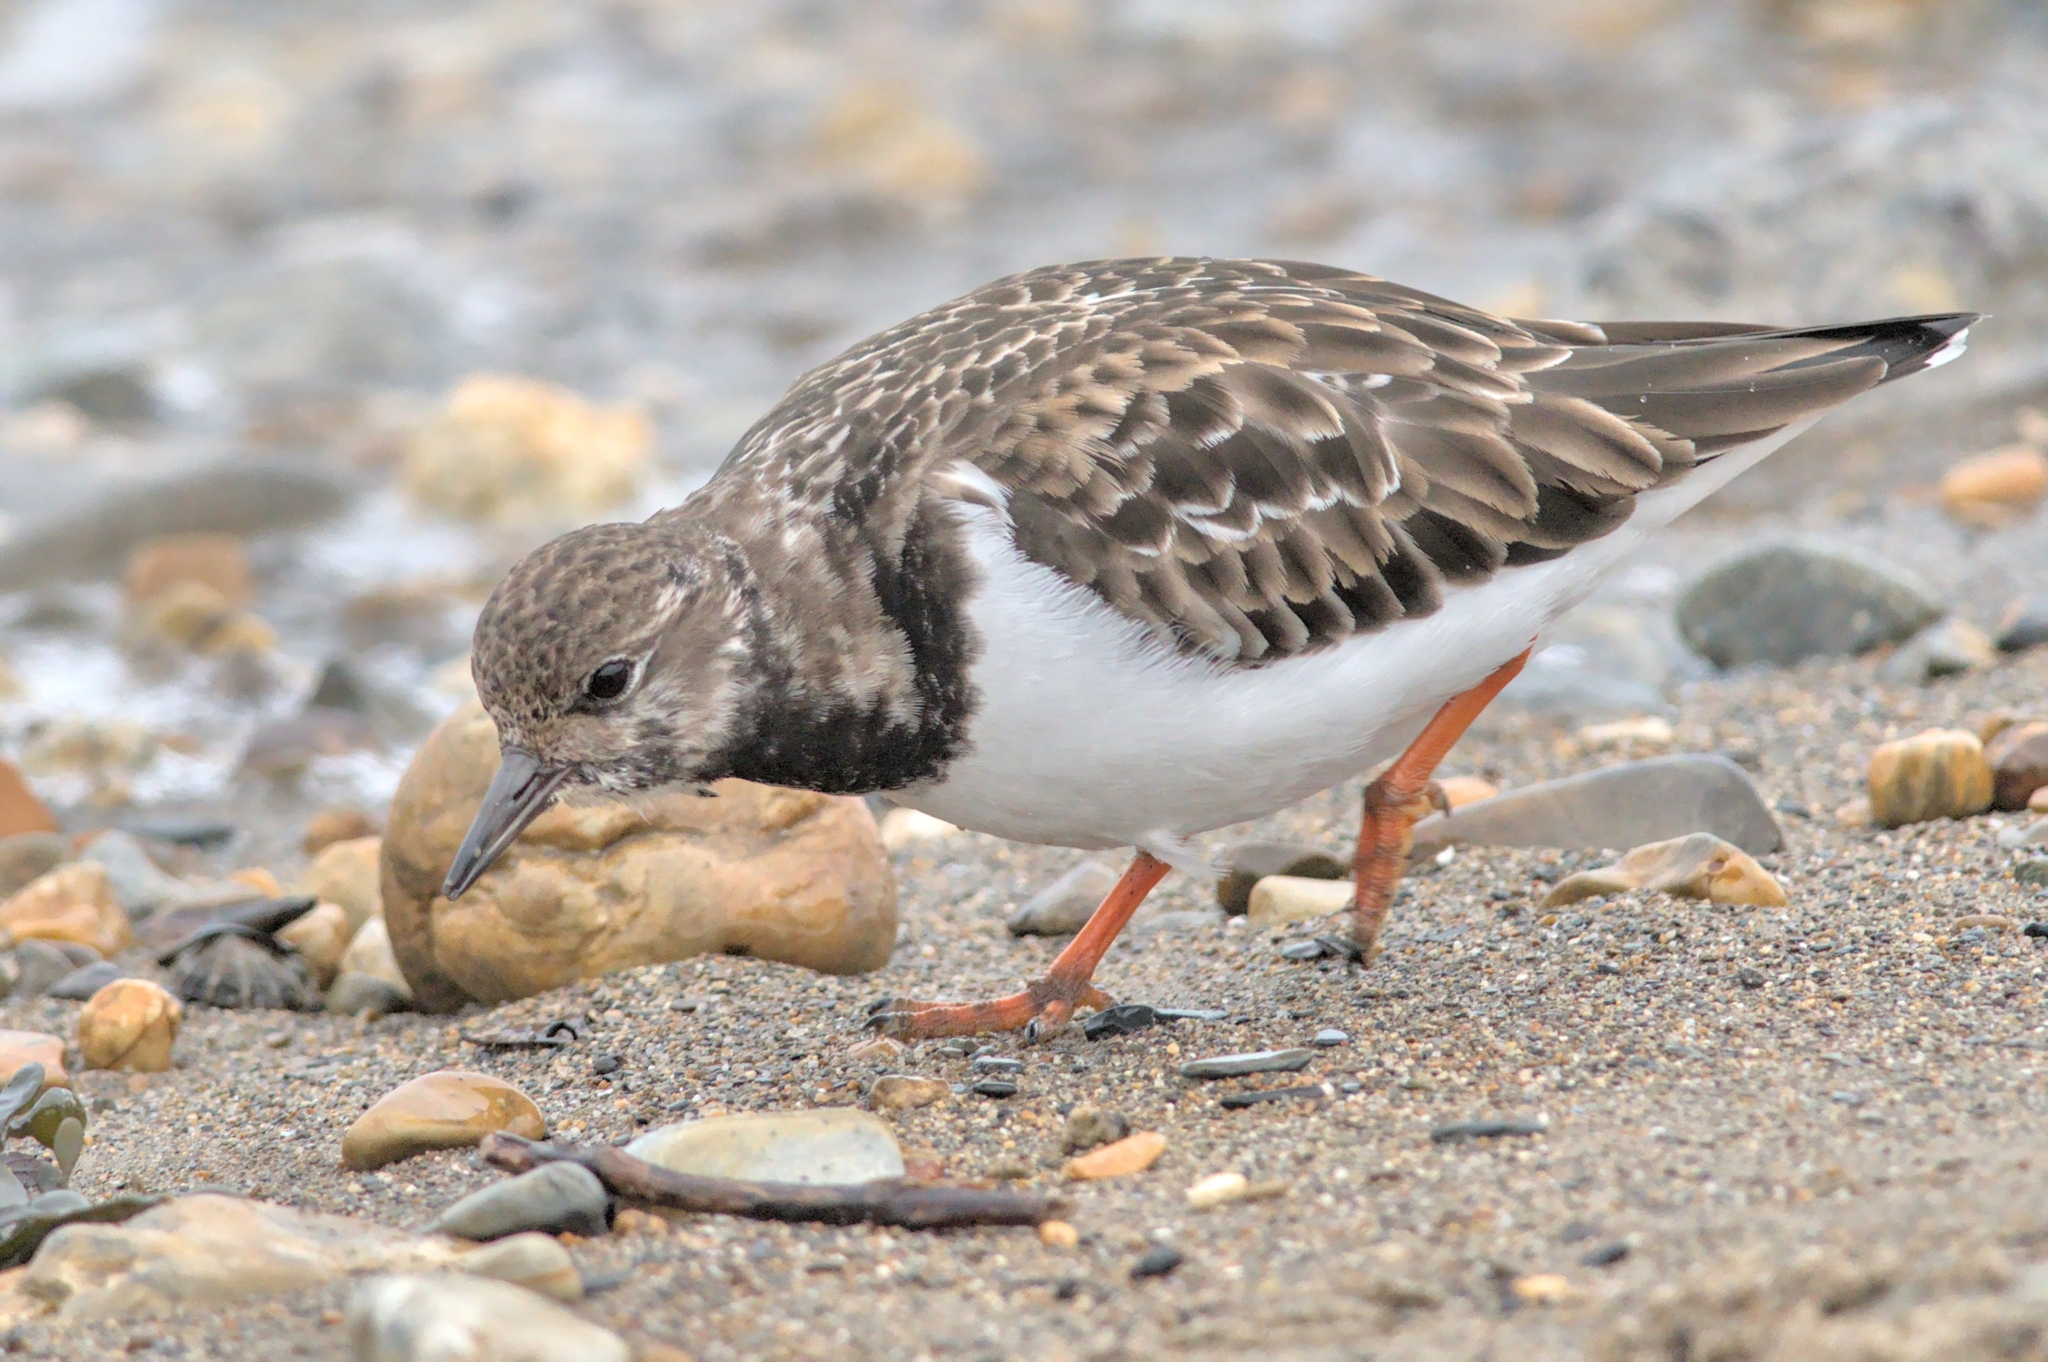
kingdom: Animalia
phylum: Chordata
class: Aves
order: Charadriiformes
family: Scolopacidae
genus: Arenaria
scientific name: Arenaria interpres
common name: Ruddy turnstone
